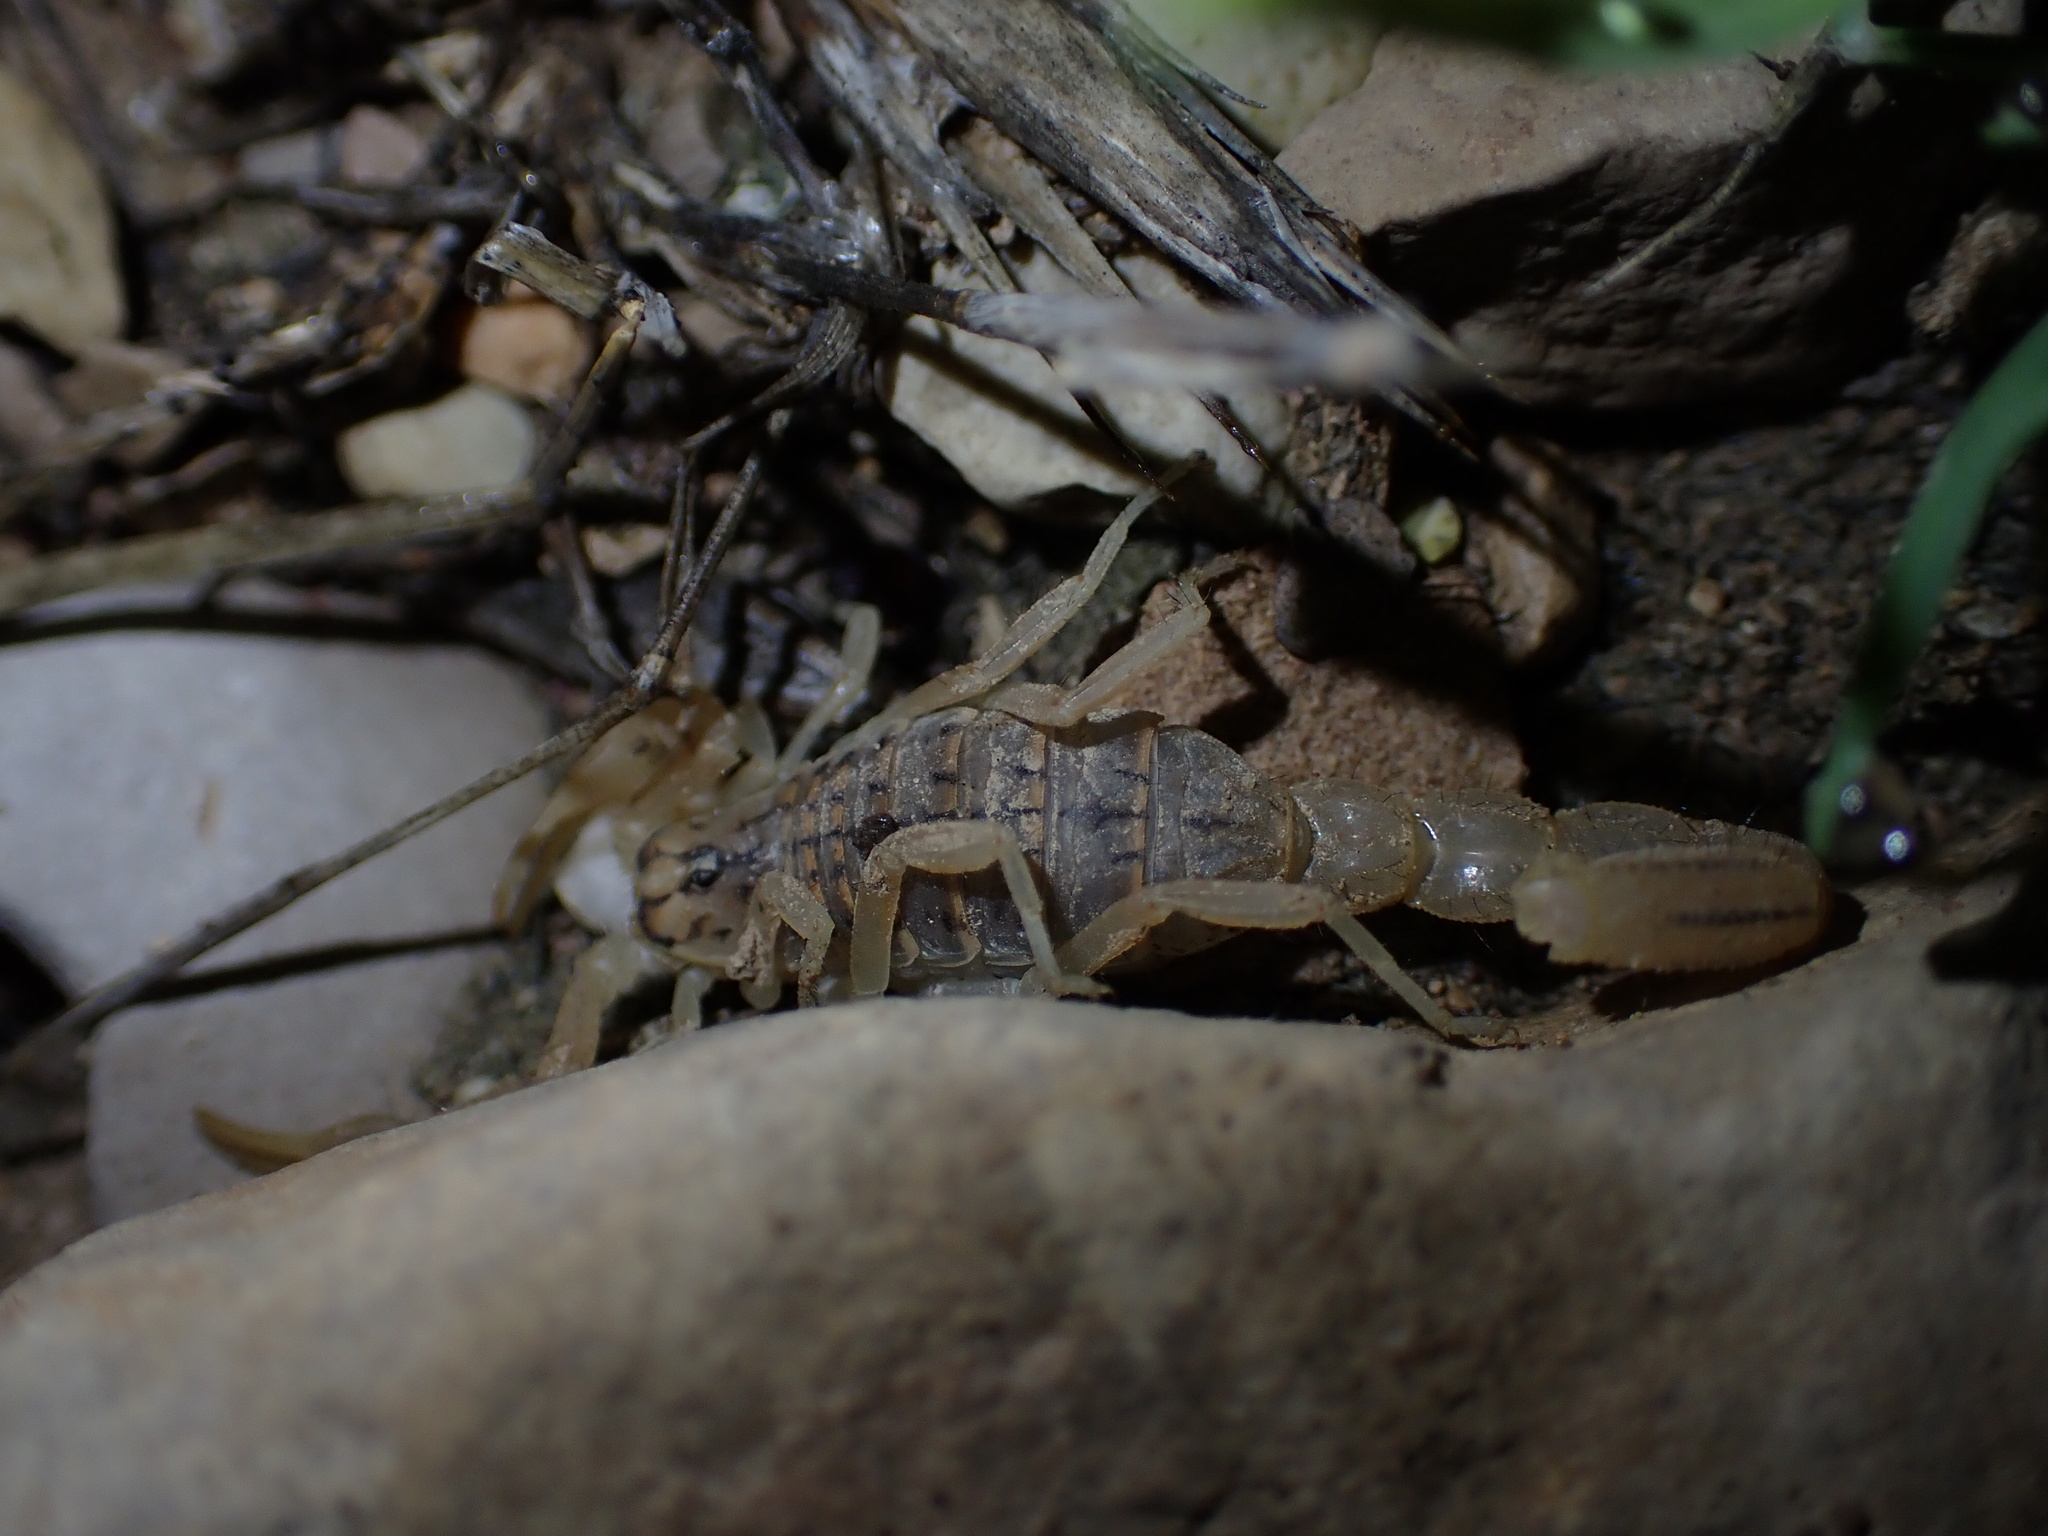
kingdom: Animalia
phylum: Arthropoda
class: Arachnida
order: Scorpiones
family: Buthidae
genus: Mesobuthus
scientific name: Mesobuthus phillipsi
